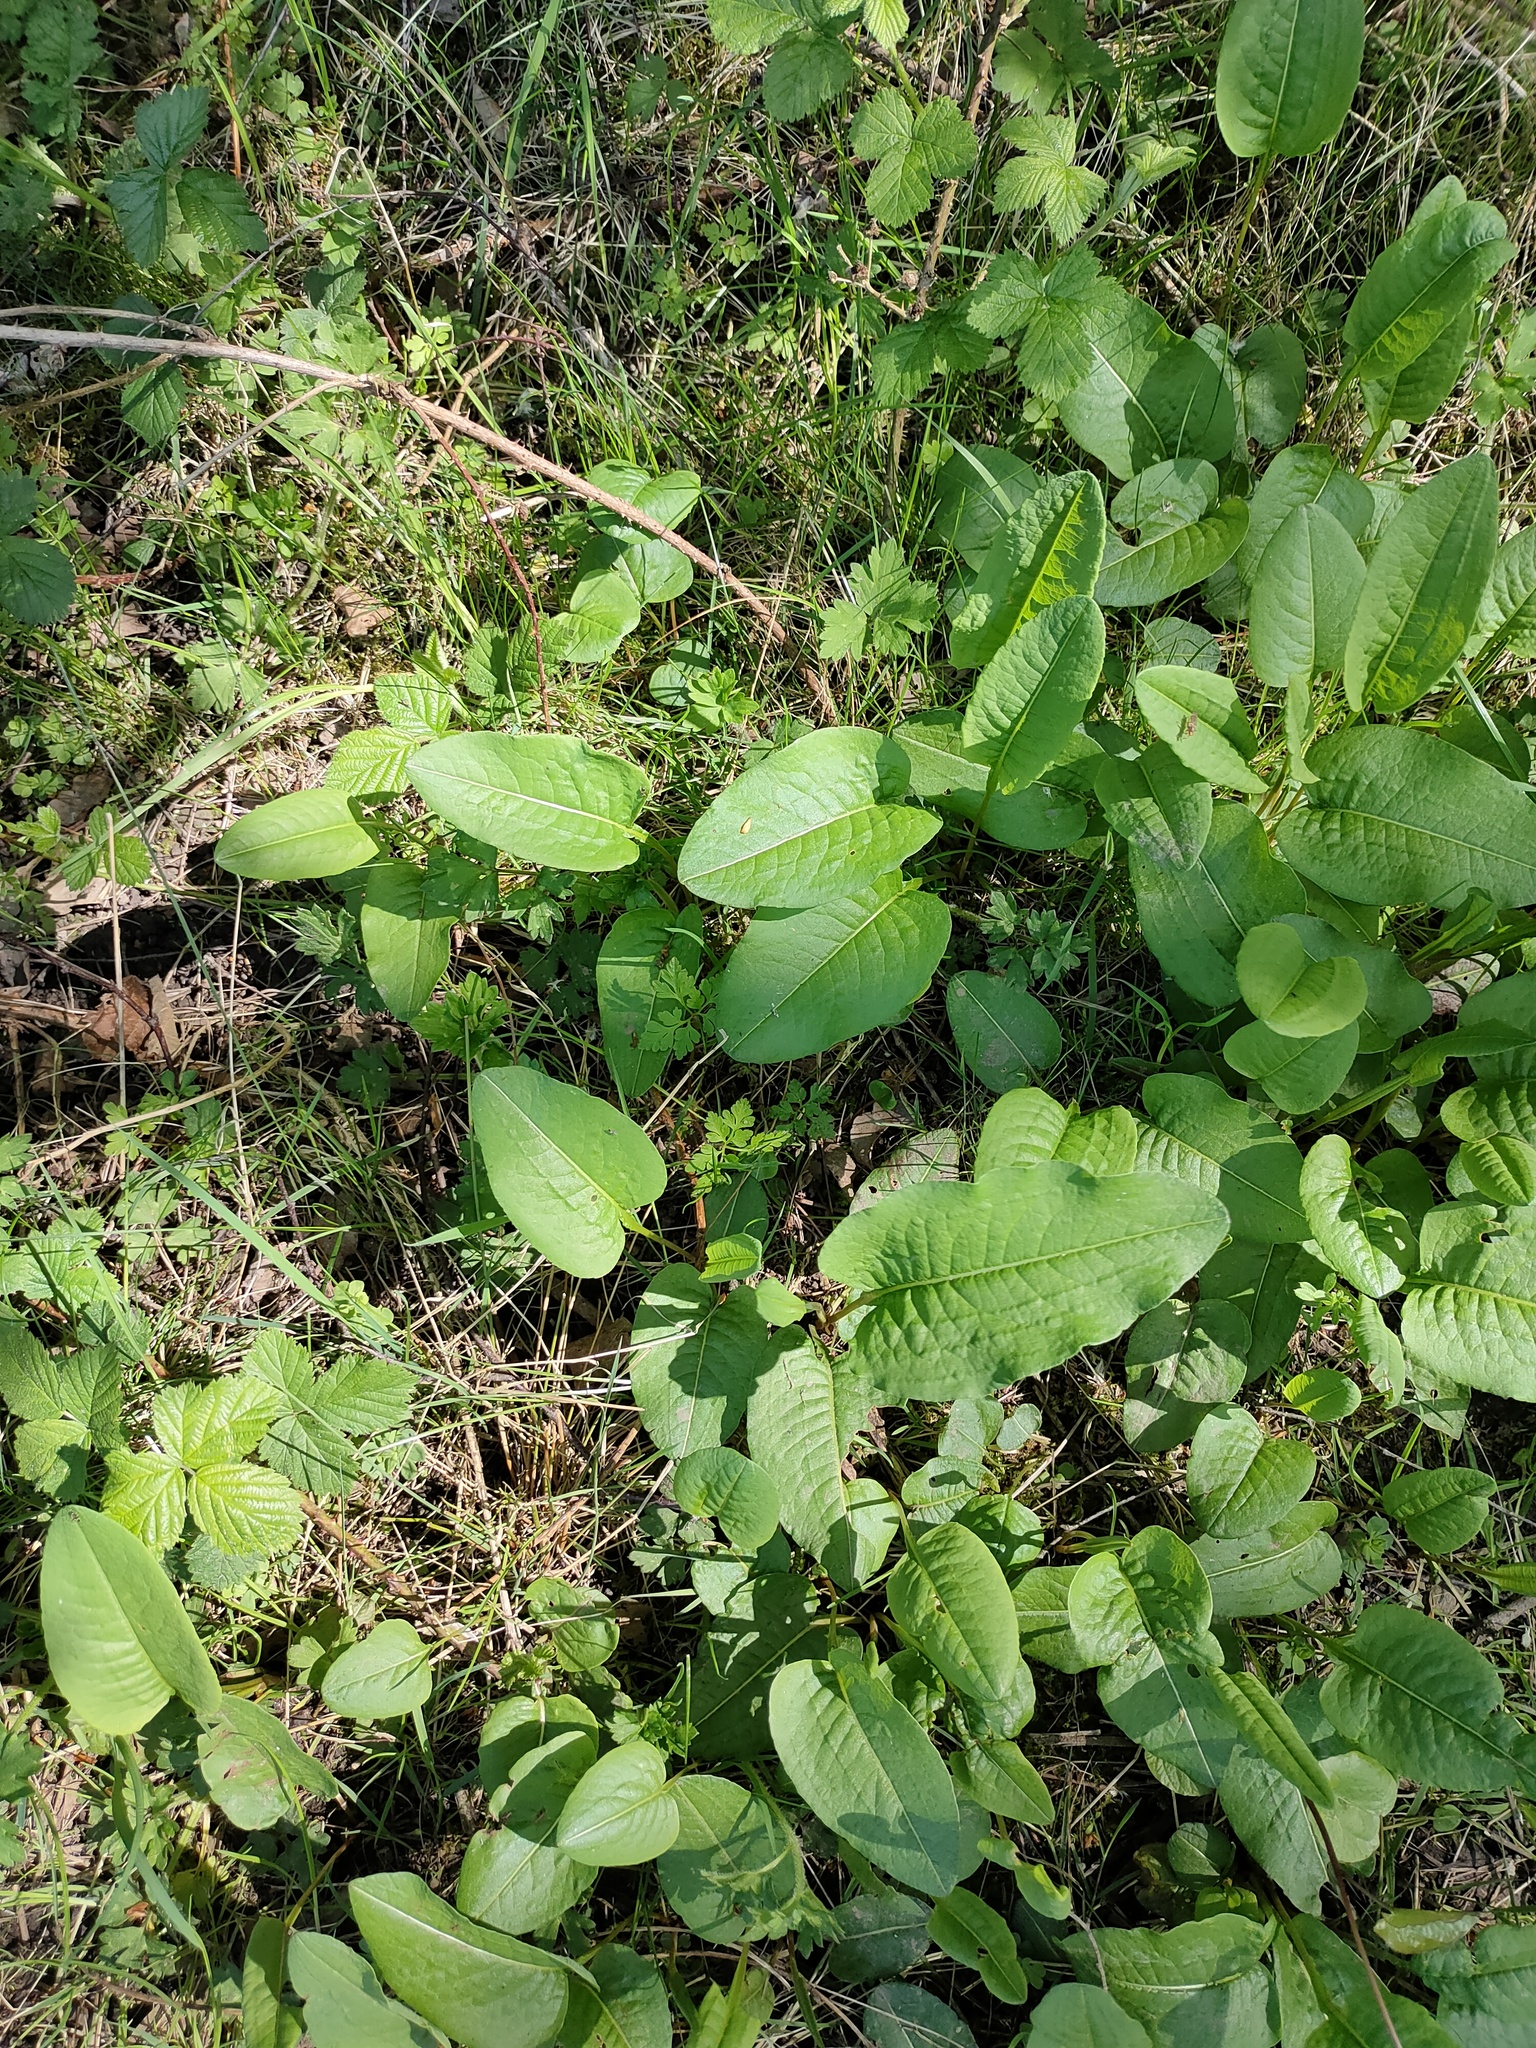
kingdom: Plantae
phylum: Tracheophyta
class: Magnoliopsida
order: Caryophyllales
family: Polygonaceae
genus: Bistorta
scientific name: Bistorta officinalis
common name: Common bistort
